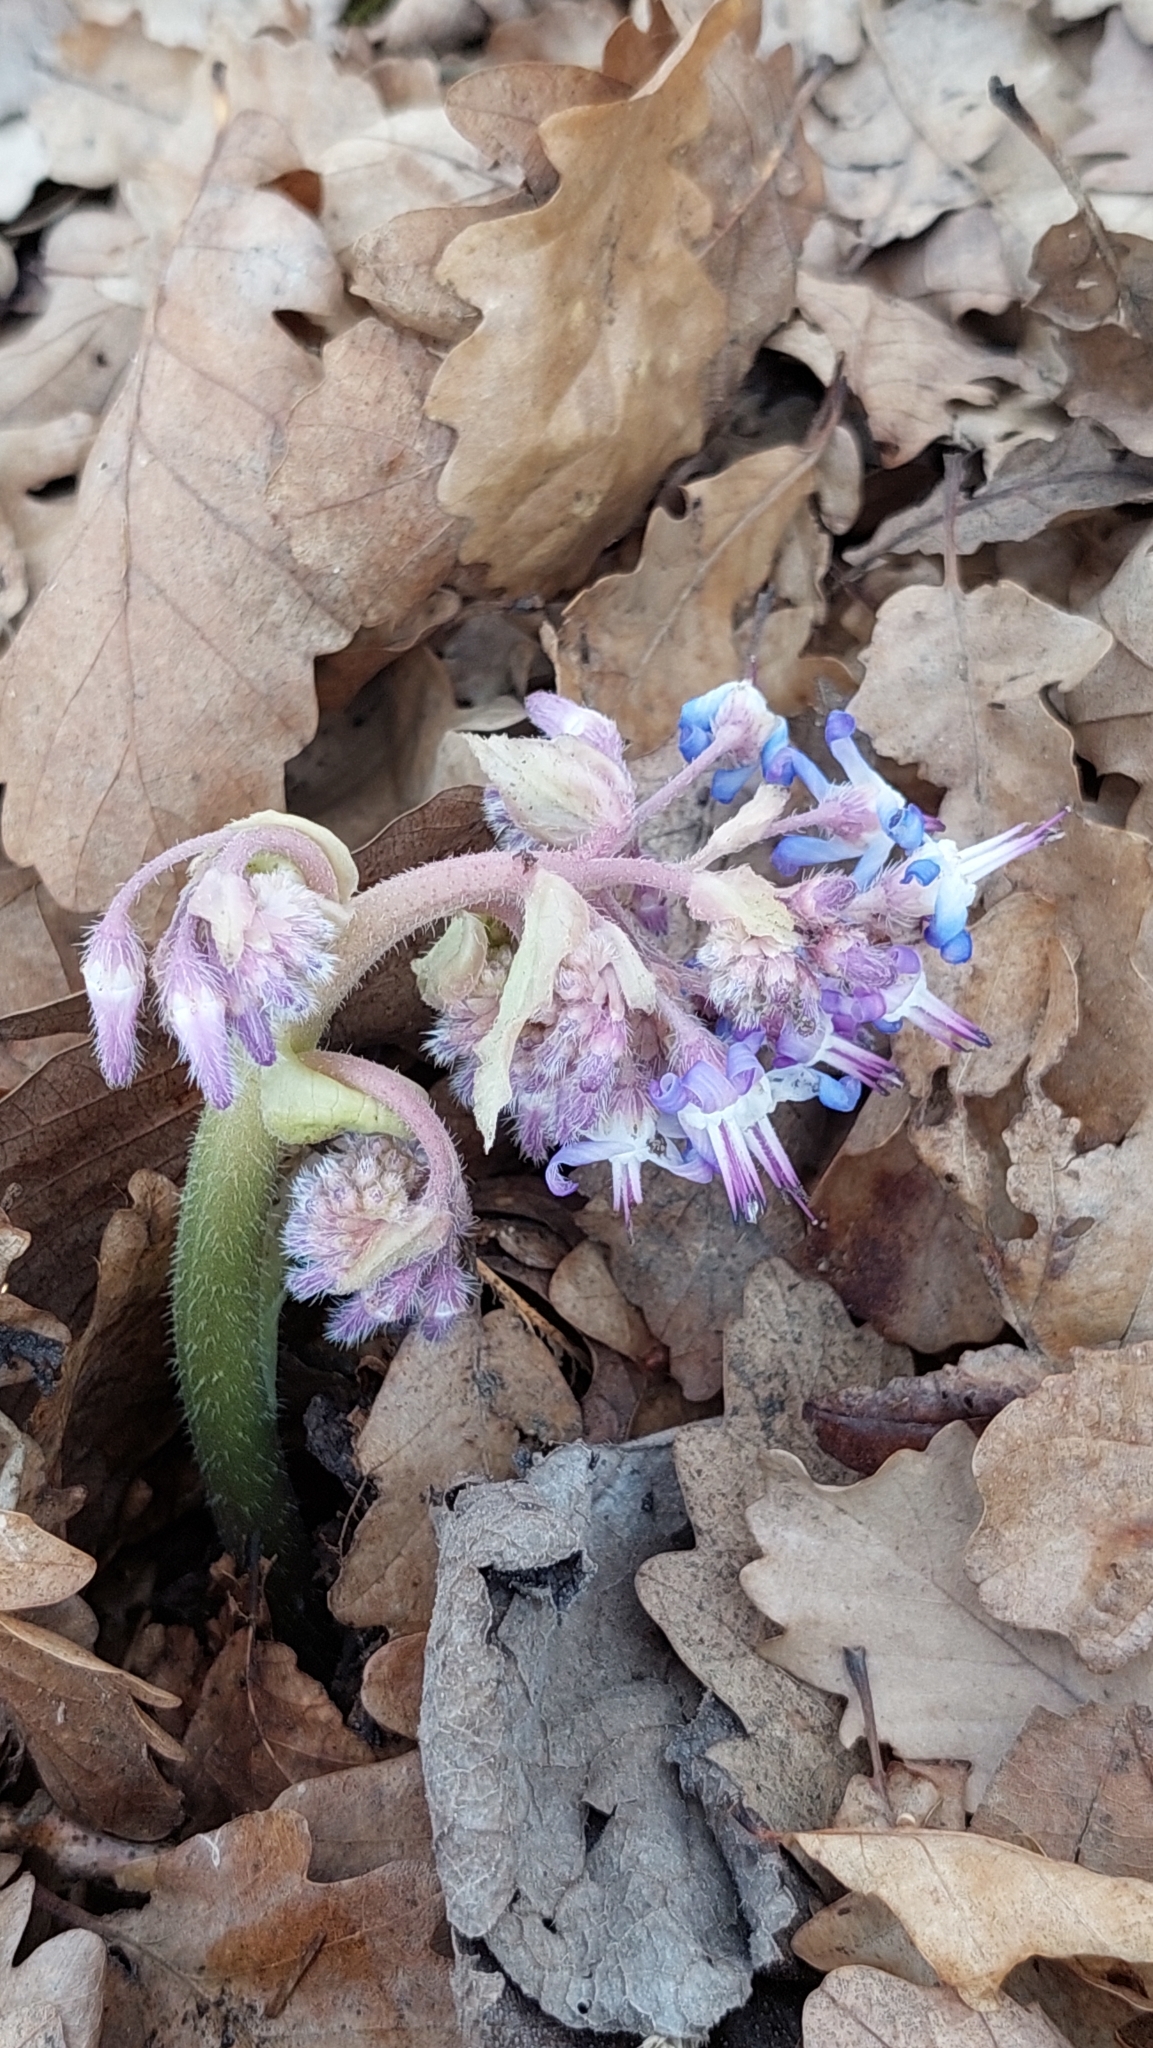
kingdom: Plantae
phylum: Tracheophyta
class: Magnoliopsida
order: Boraginales
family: Boraginaceae
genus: Trachystemon
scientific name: Trachystemon orientale
